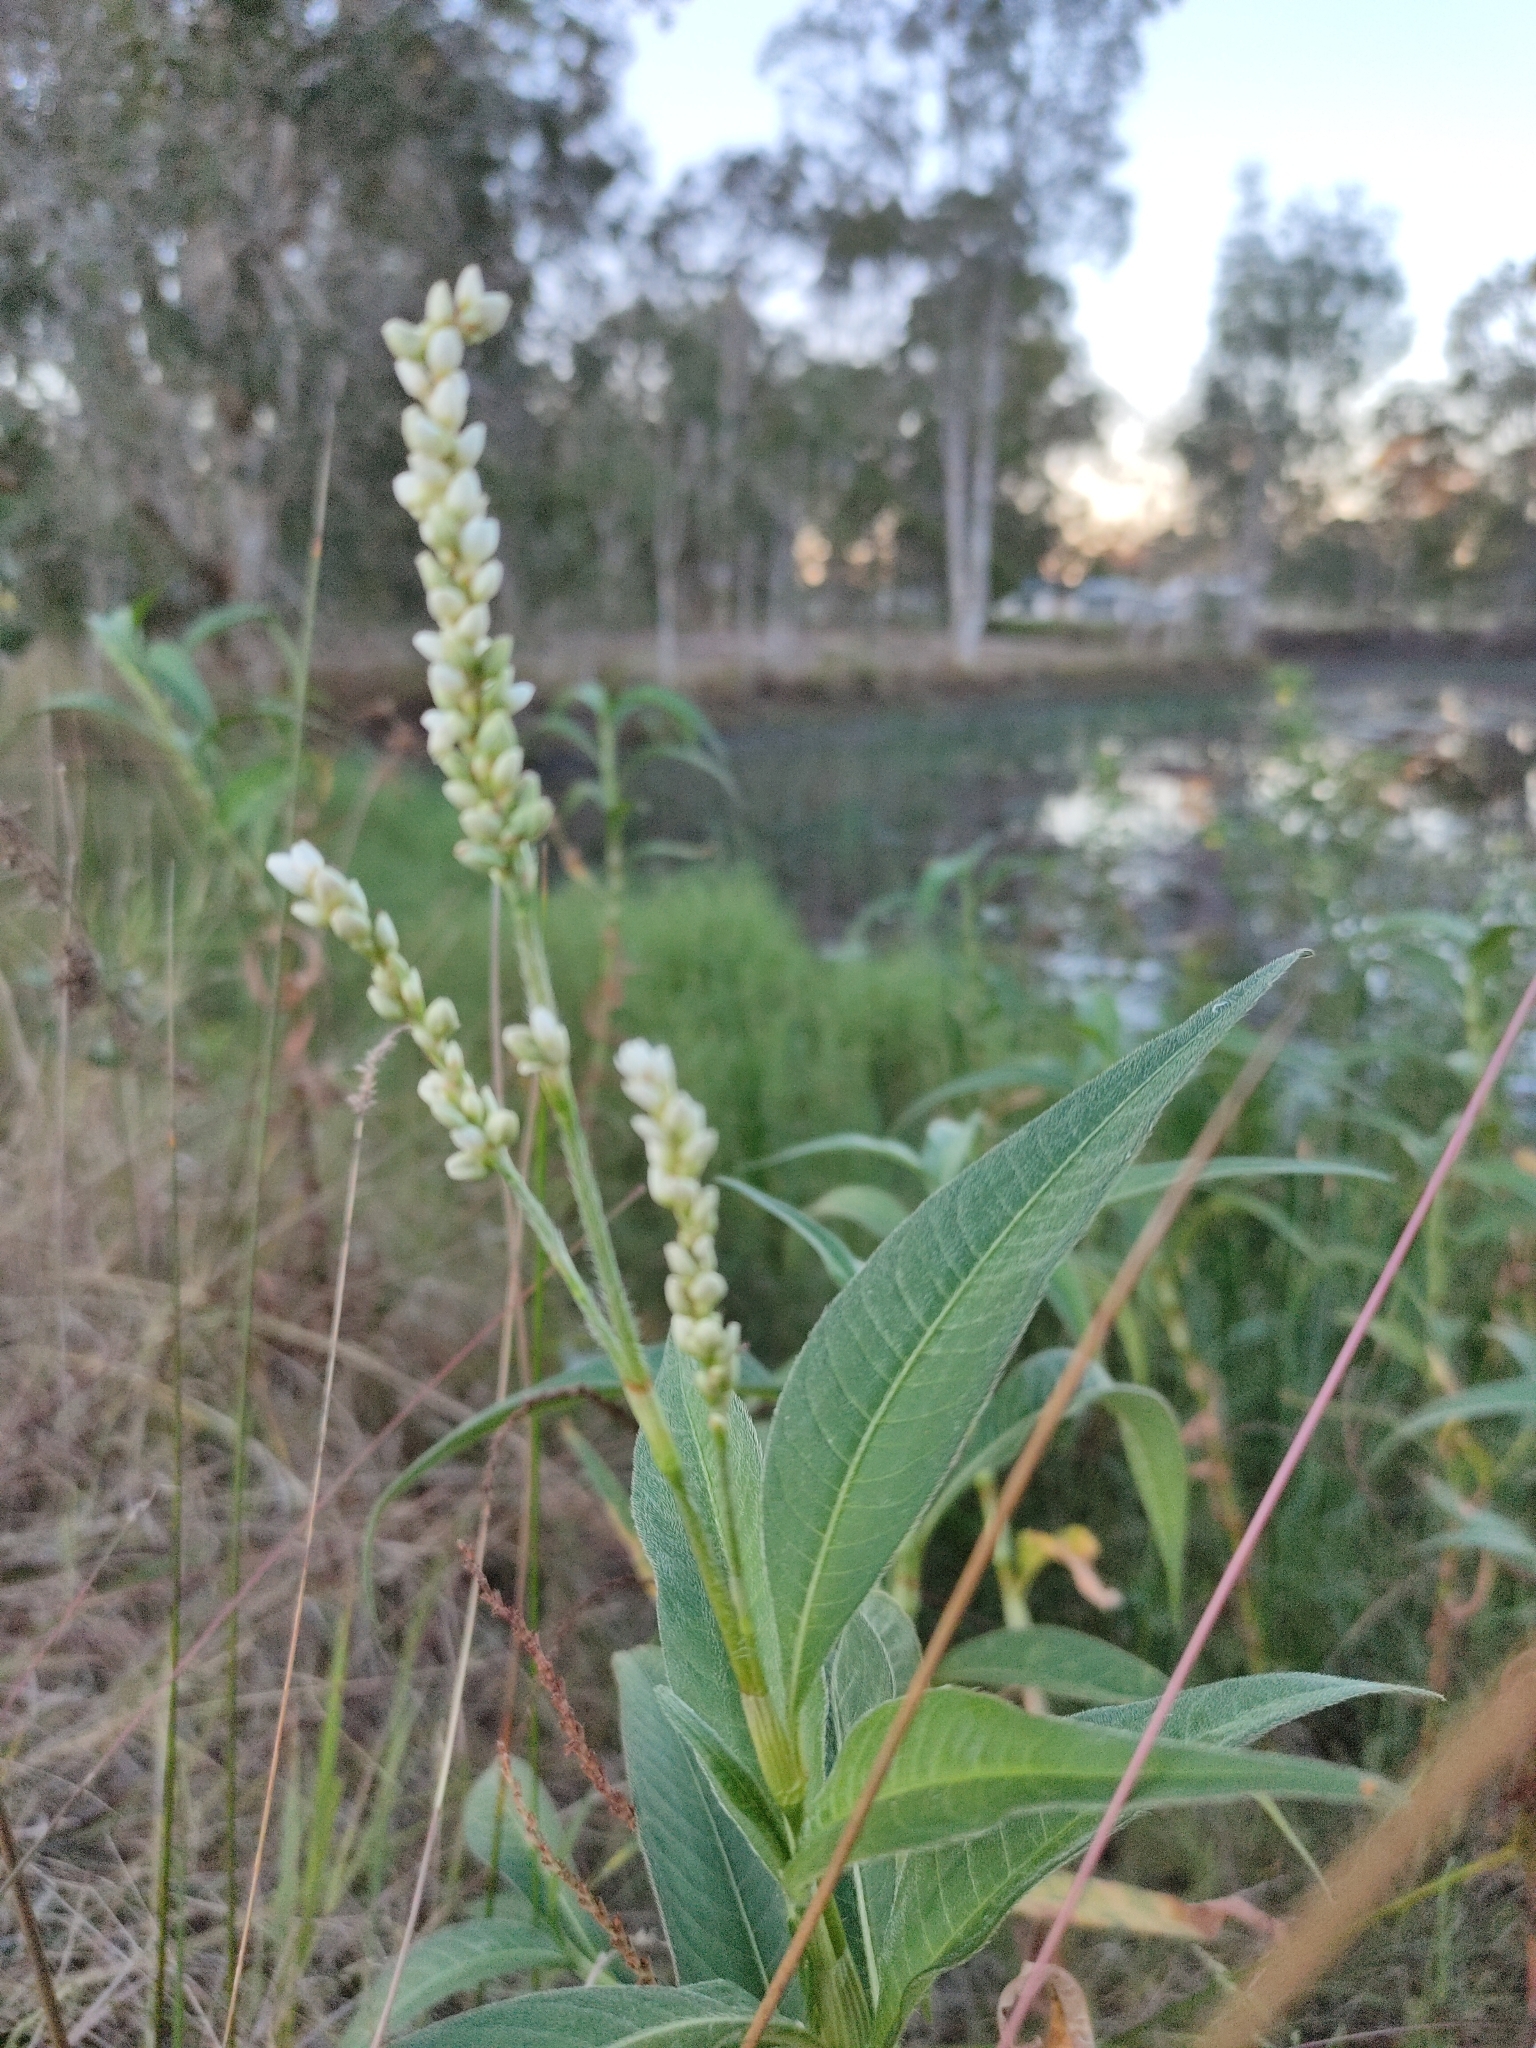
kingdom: Plantae
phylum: Tracheophyta
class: Magnoliopsida
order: Caryophyllales
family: Polygonaceae
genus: Persicaria
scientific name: Persicaria attenuata
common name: Hairy knotweed
